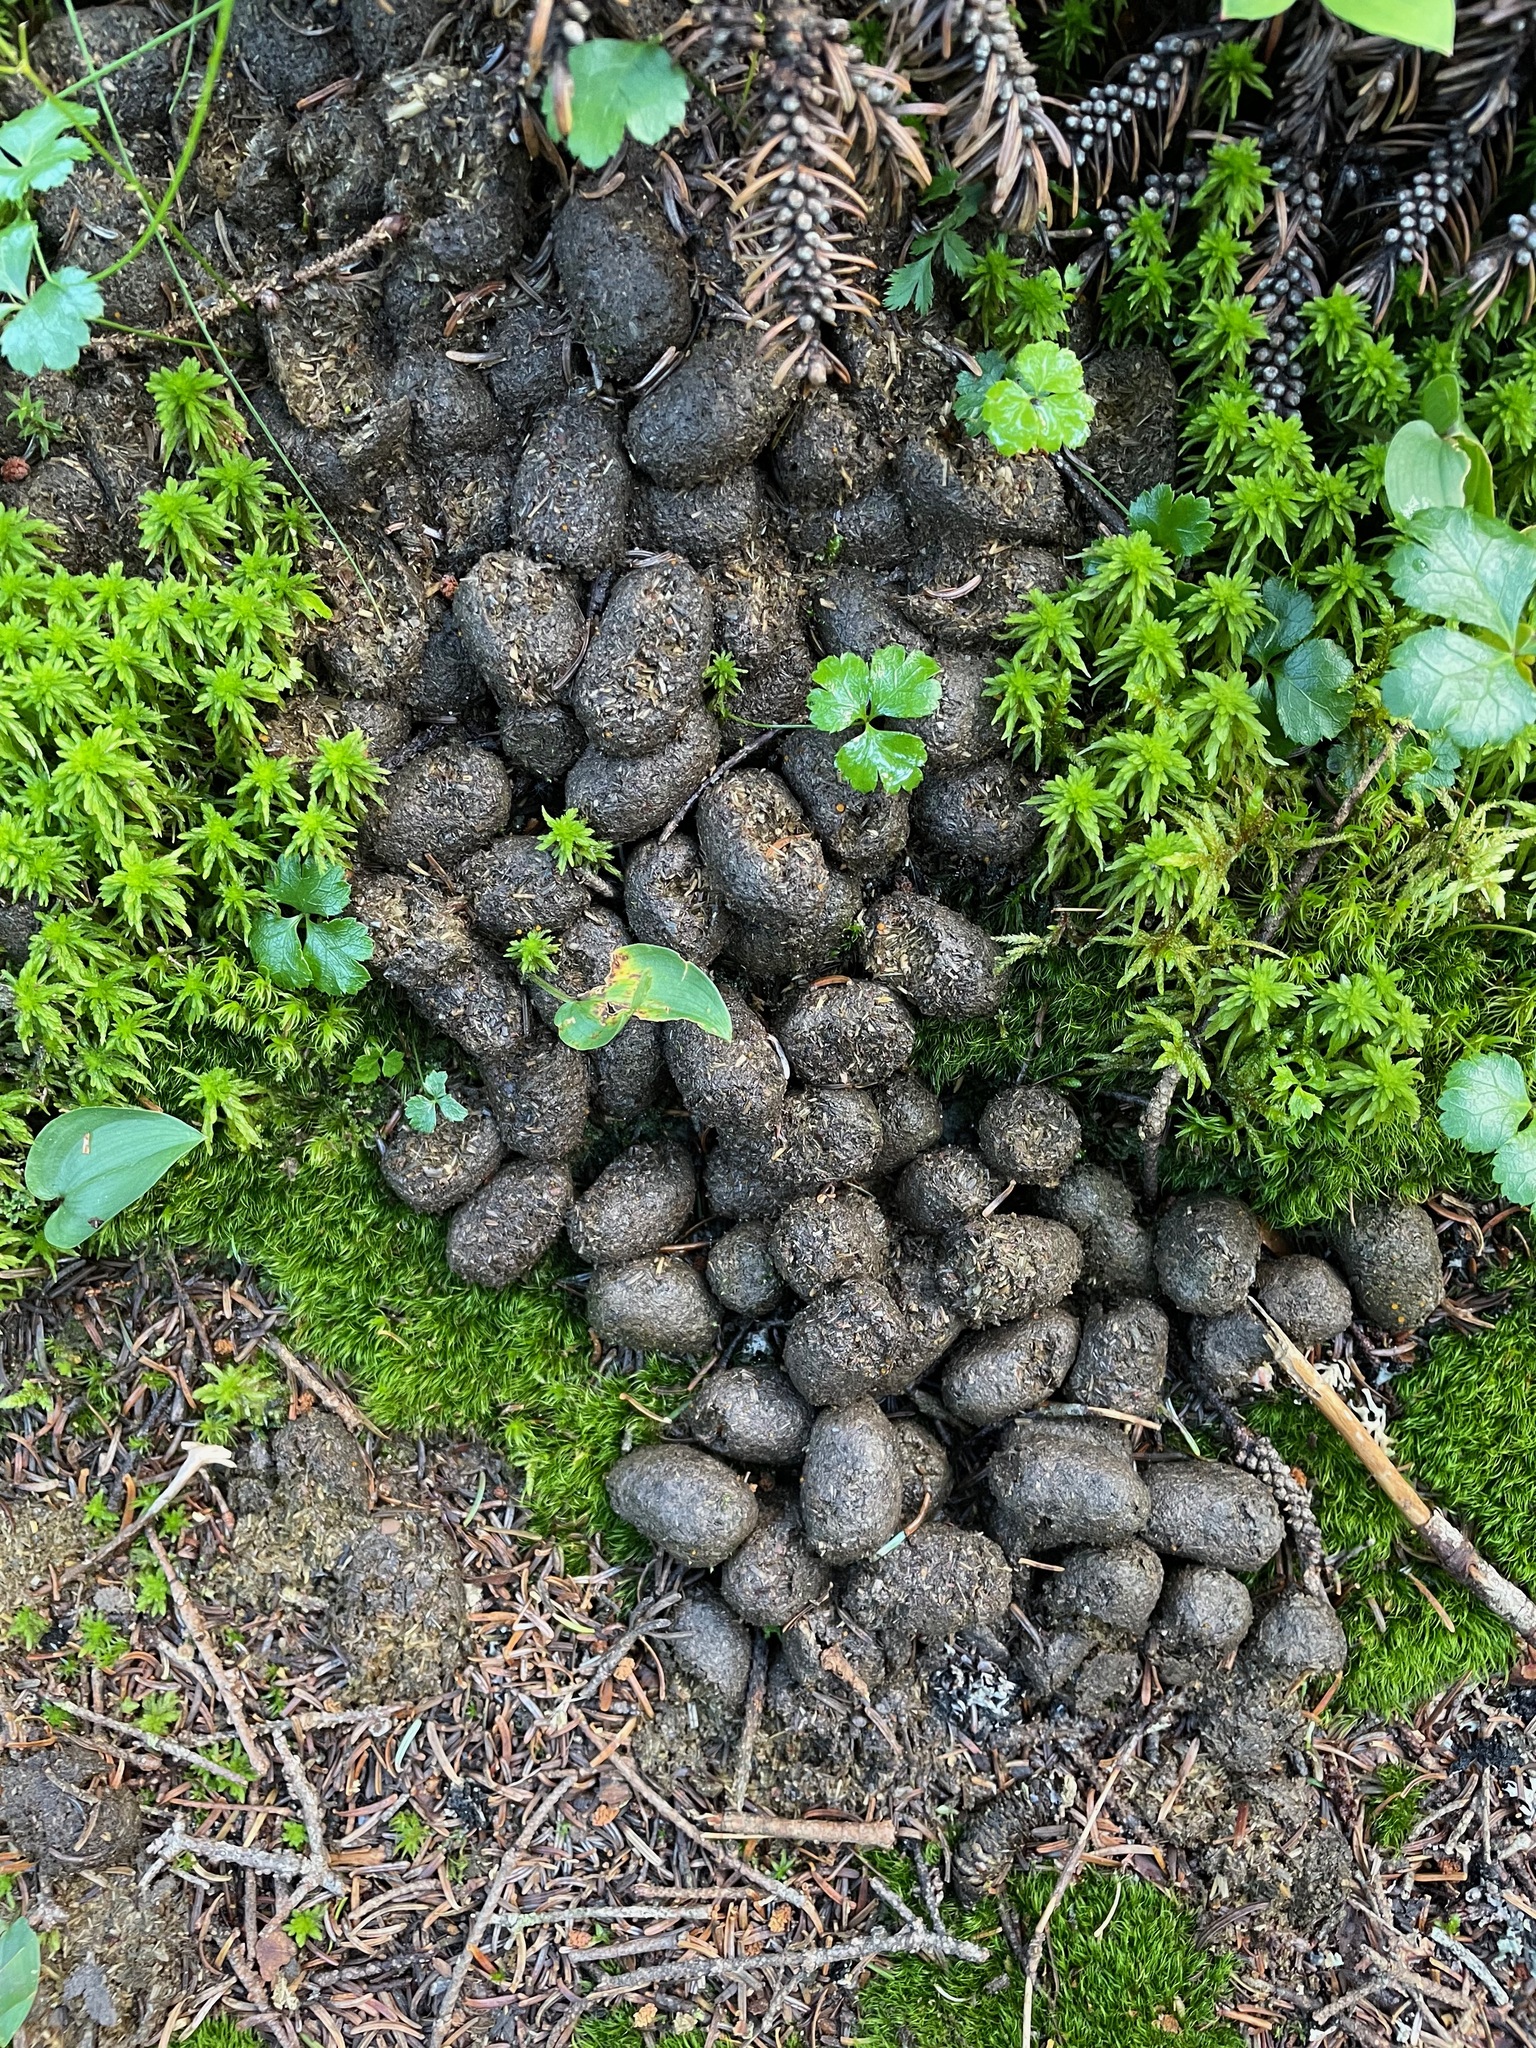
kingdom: Animalia
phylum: Chordata
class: Mammalia
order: Artiodactyla
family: Cervidae
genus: Alces
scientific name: Alces alces
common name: Moose
